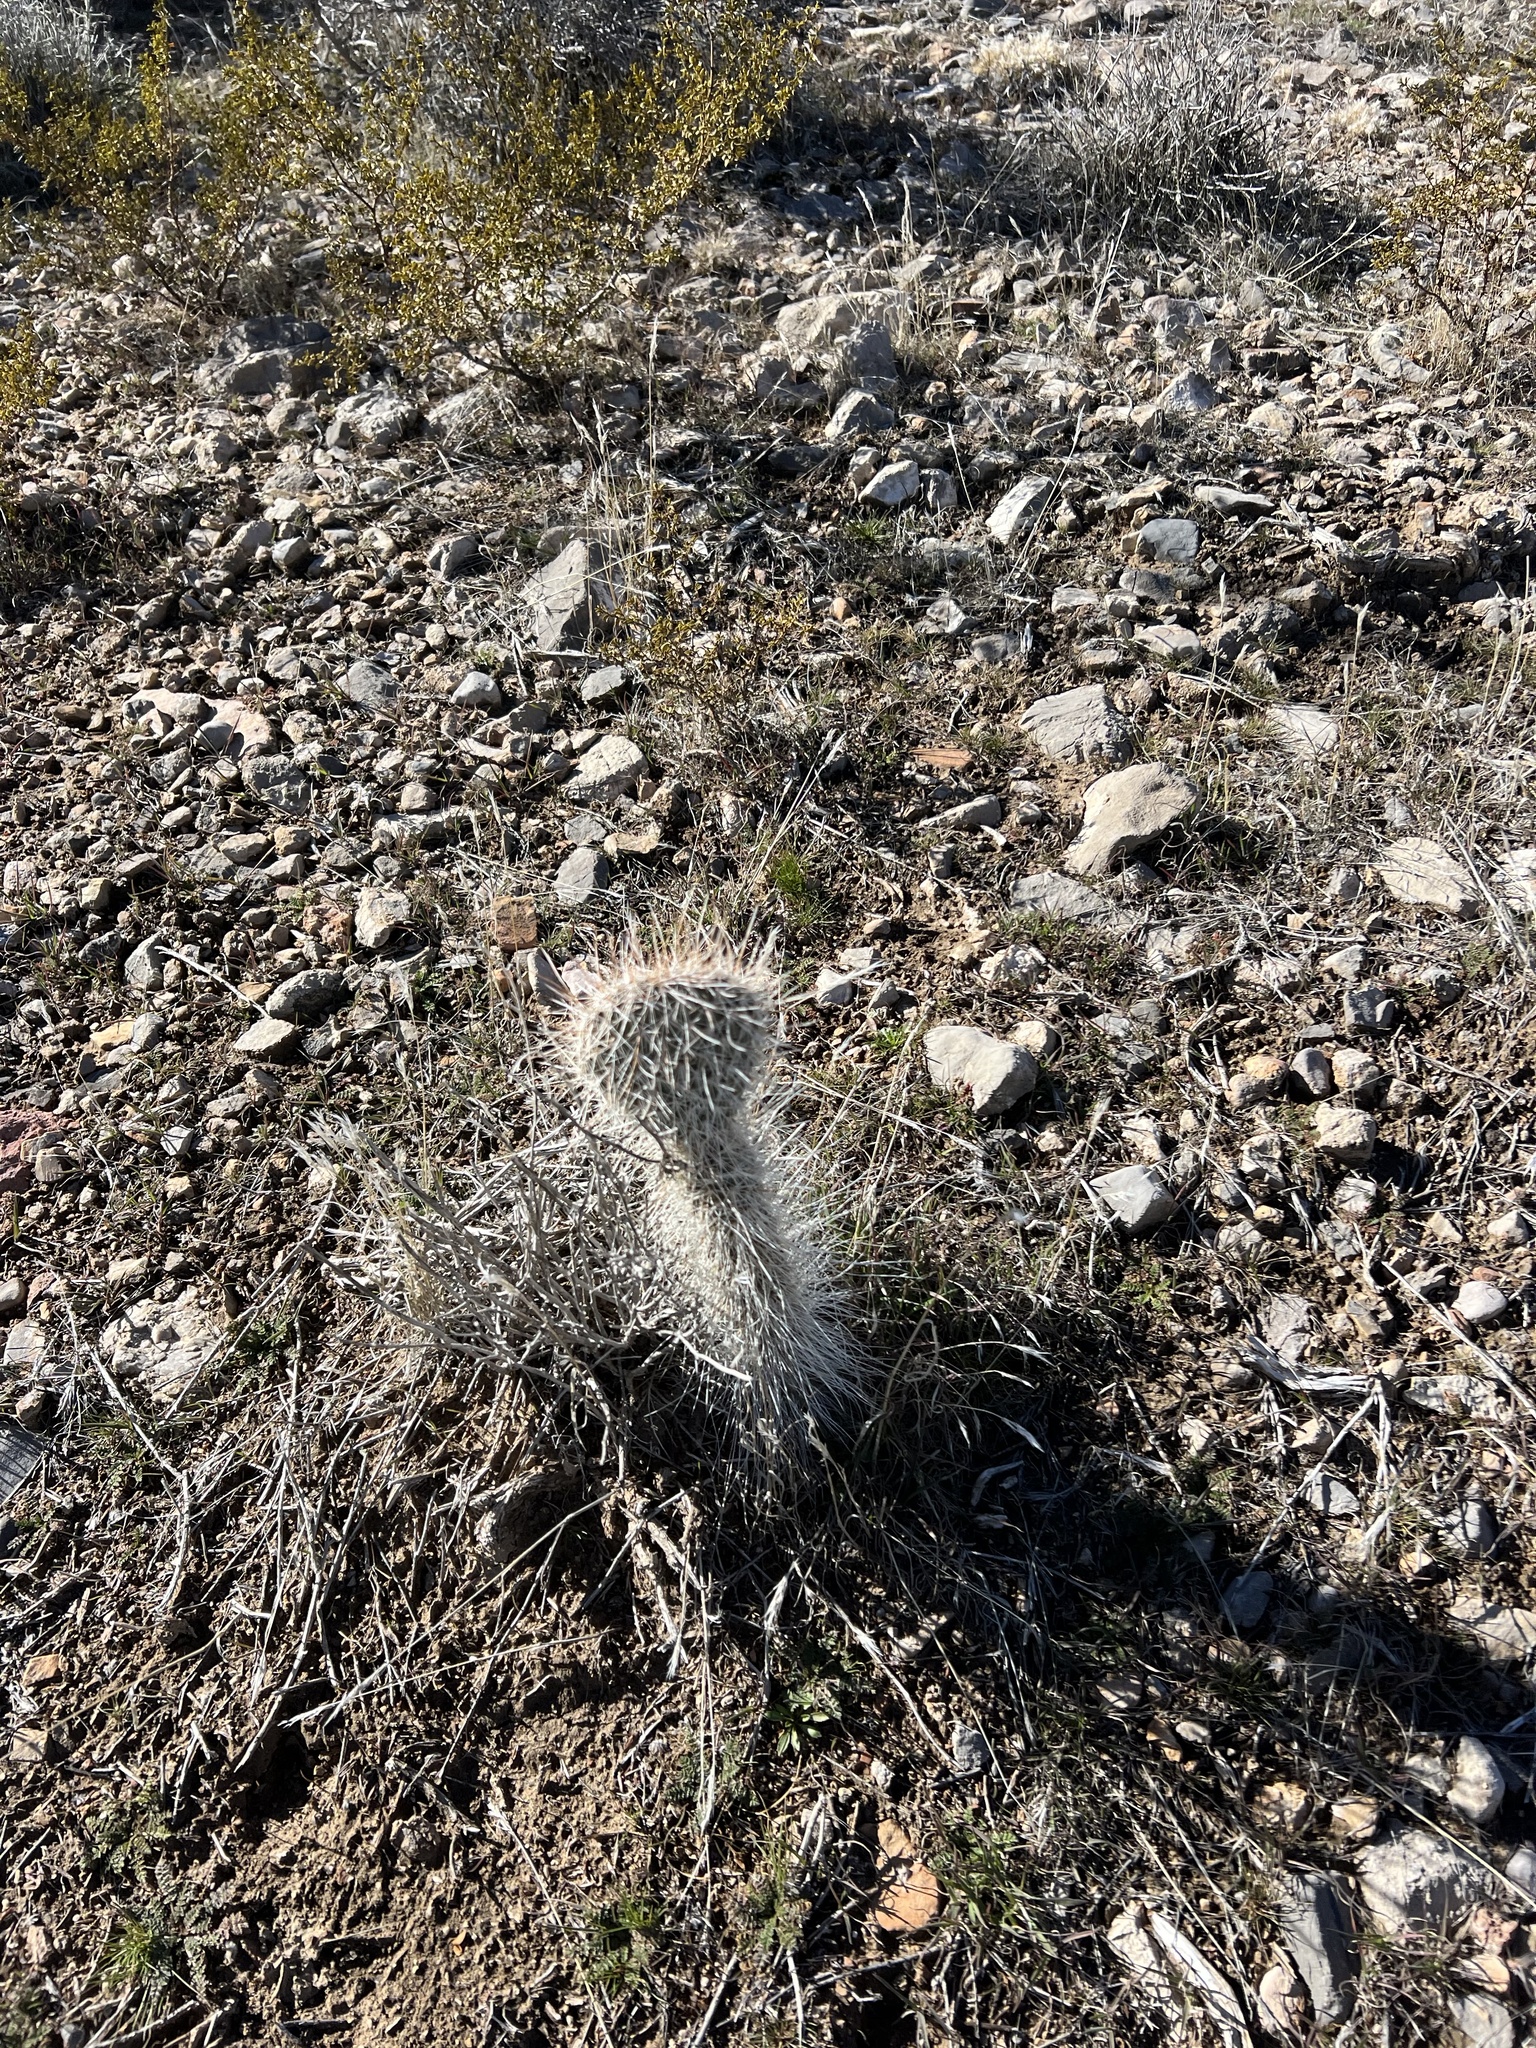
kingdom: Plantae
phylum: Tracheophyta
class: Magnoliopsida
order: Caryophyllales
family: Cactaceae
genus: Opuntia
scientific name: Opuntia polyacantha
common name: Plains prickly-pear
